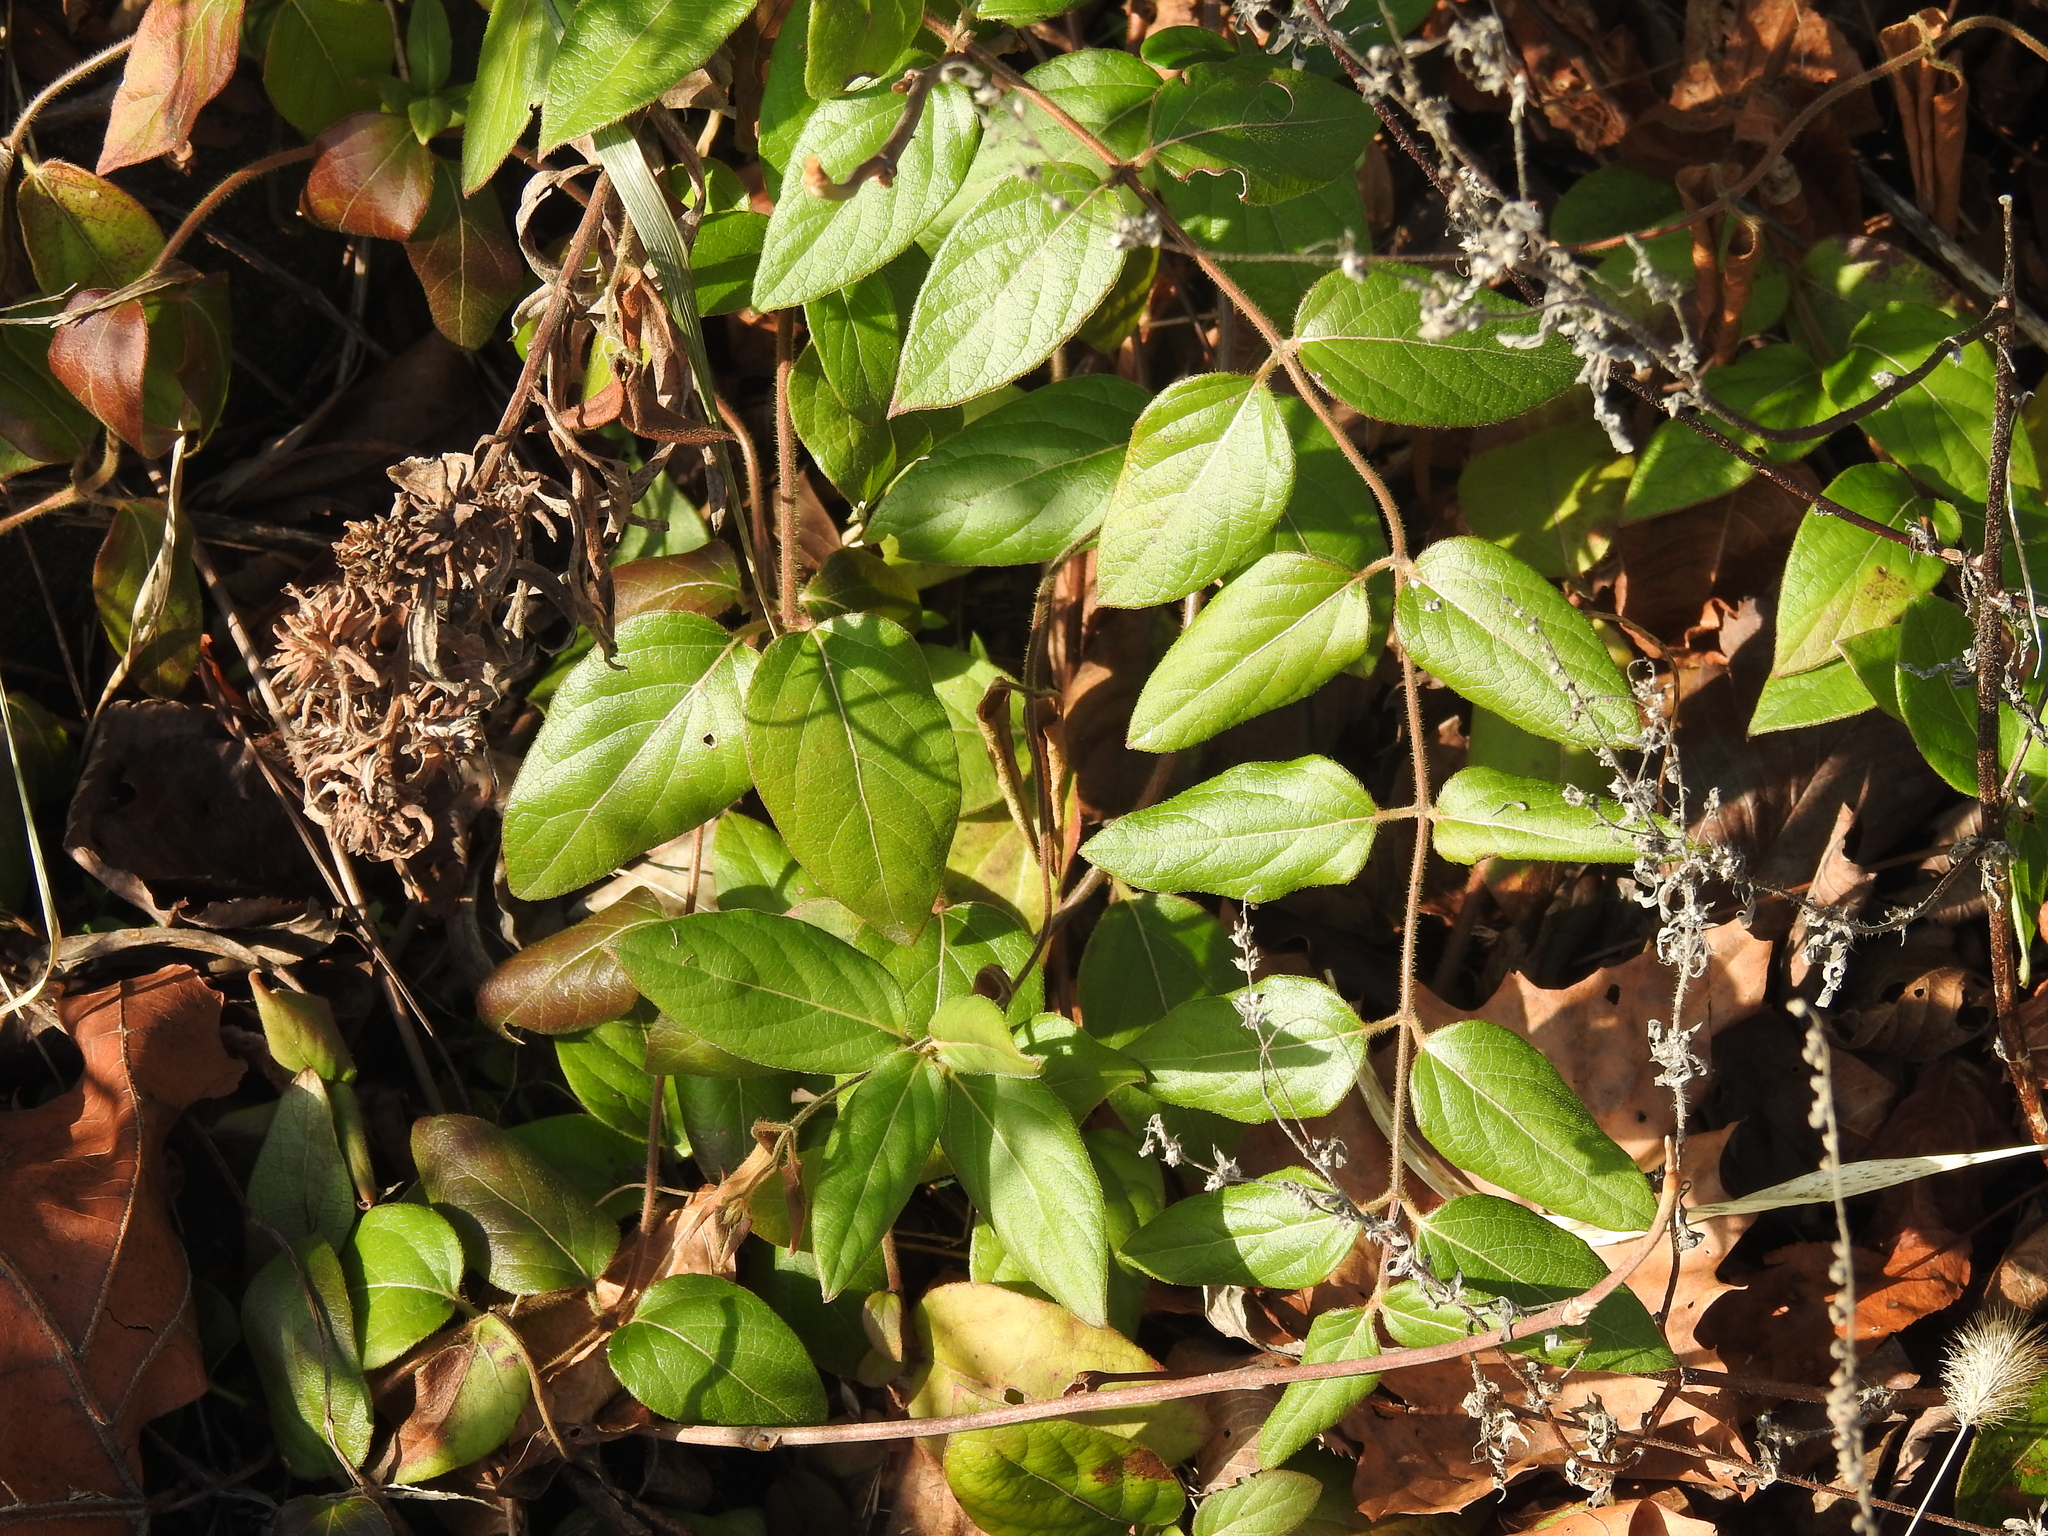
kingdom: Plantae
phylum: Tracheophyta
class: Magnoliopsida
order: Dipsacales
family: Caprifoliaceae
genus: Lonicera
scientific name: Lonicera japonica
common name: Japanese honeysuckle
